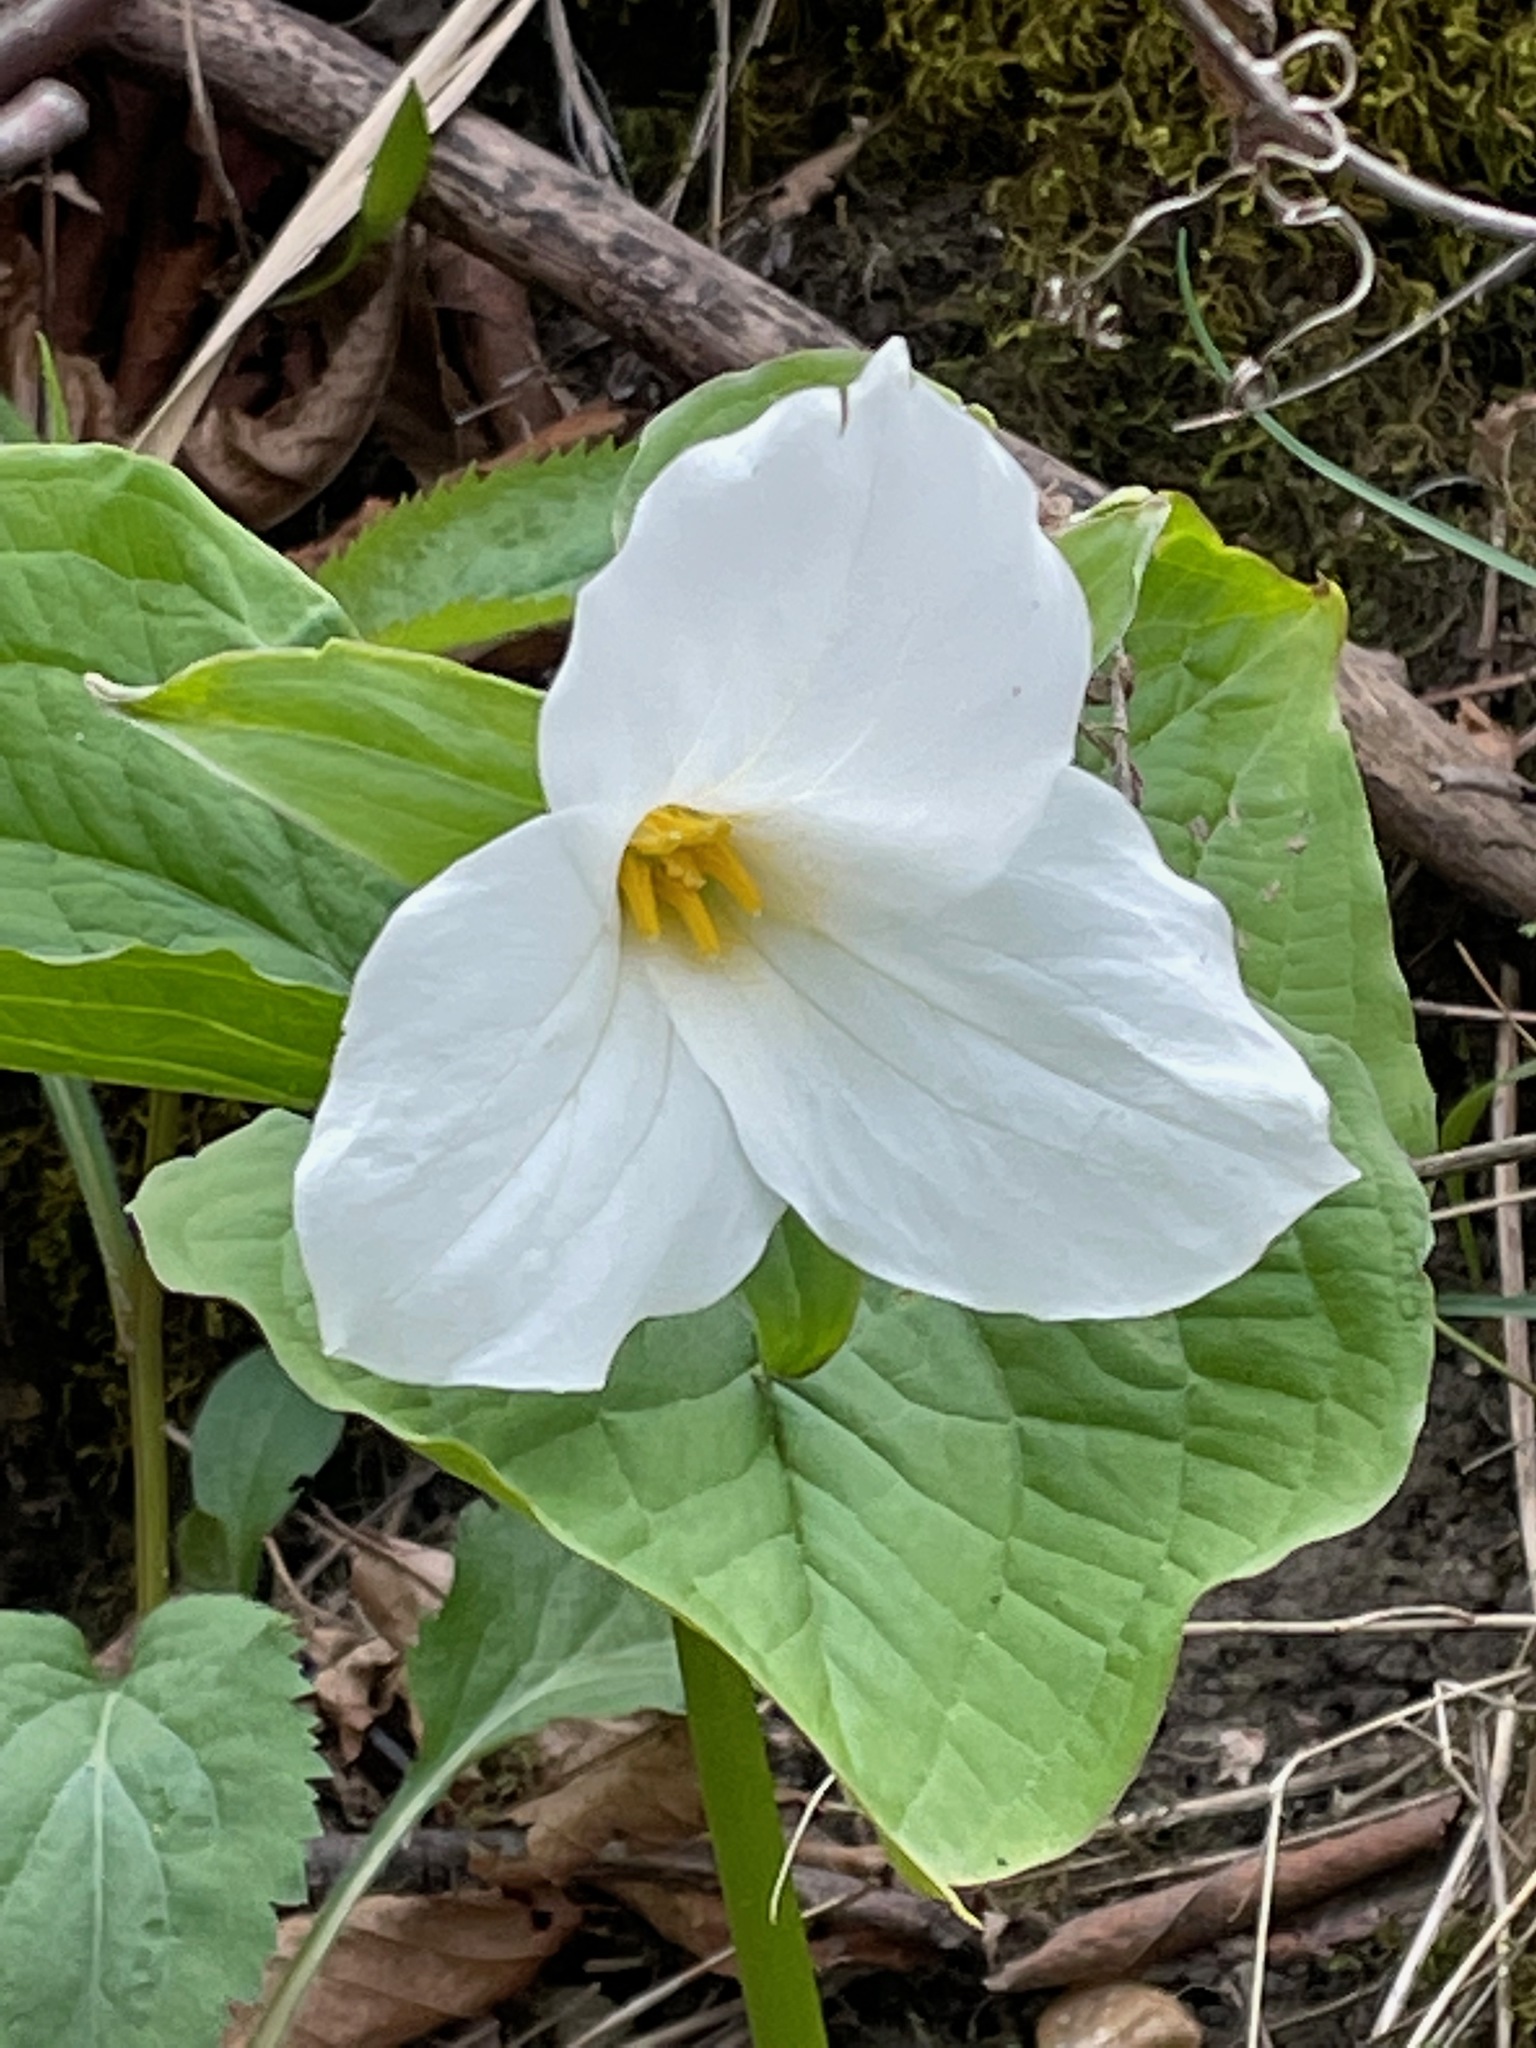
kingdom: Plantae
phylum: Tracheophyta
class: Liliopsida
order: Liliales
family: Melanthiaceae
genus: Trillium
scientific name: Trillium grandiflorum
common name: Great white trillium
